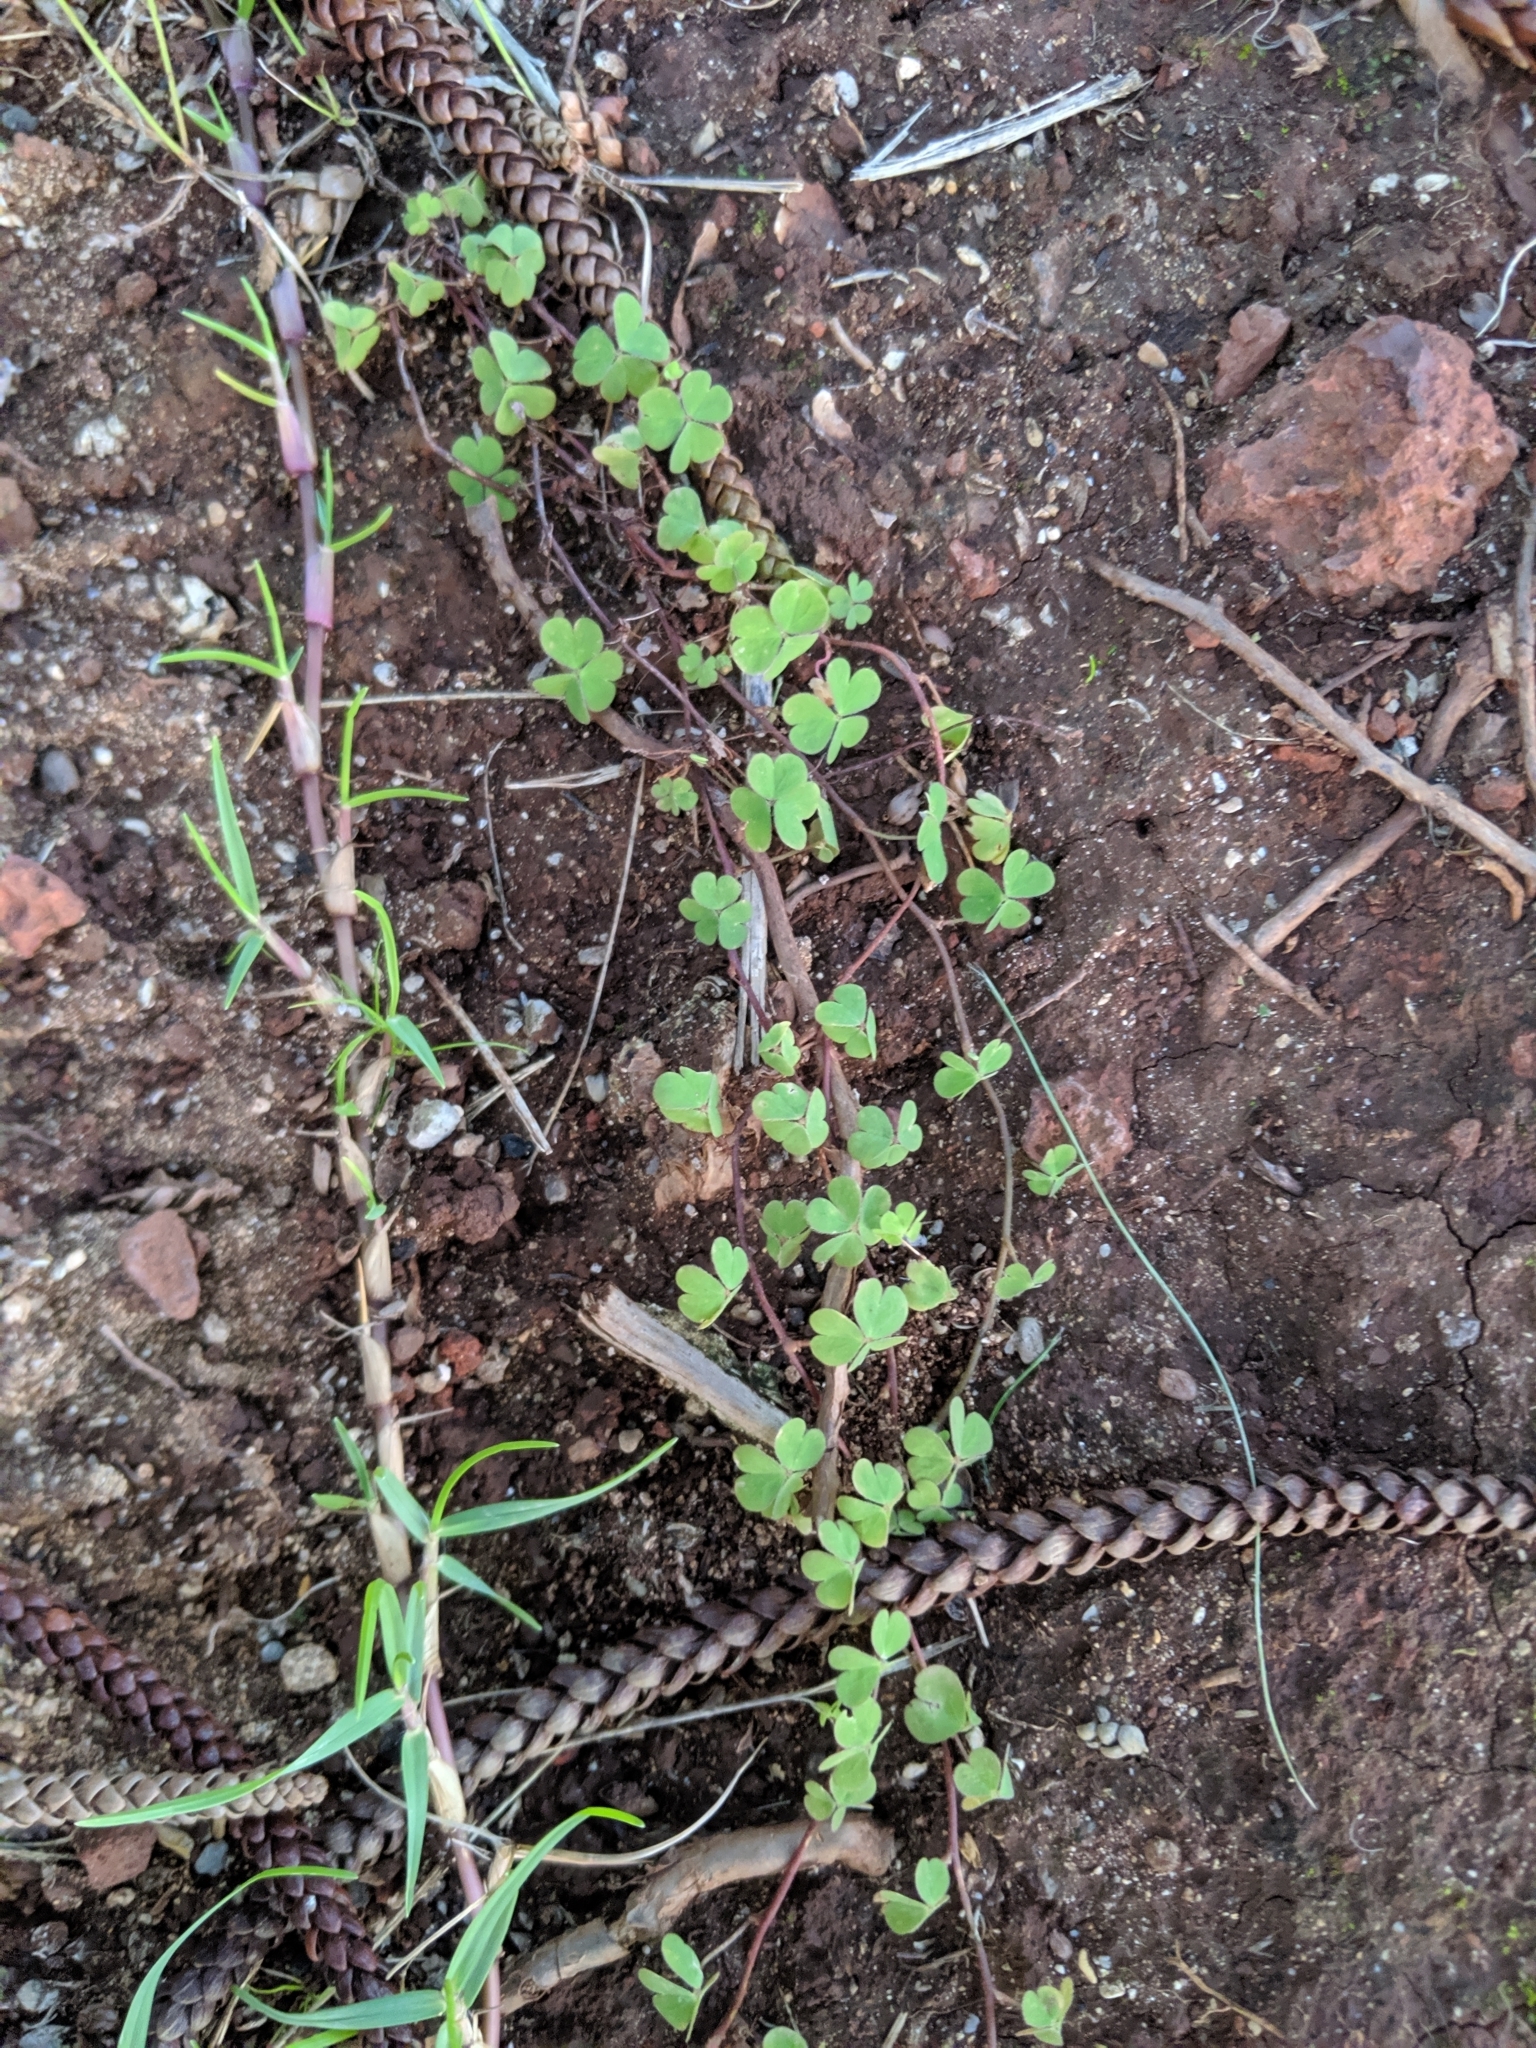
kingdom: Plantae
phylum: Tracheophyta
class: Magnoliopsida
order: Oxalidales
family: Oxalidaceae
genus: Oxalis
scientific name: Oxalis corniculata
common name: Procumbent yellow-sorrel
